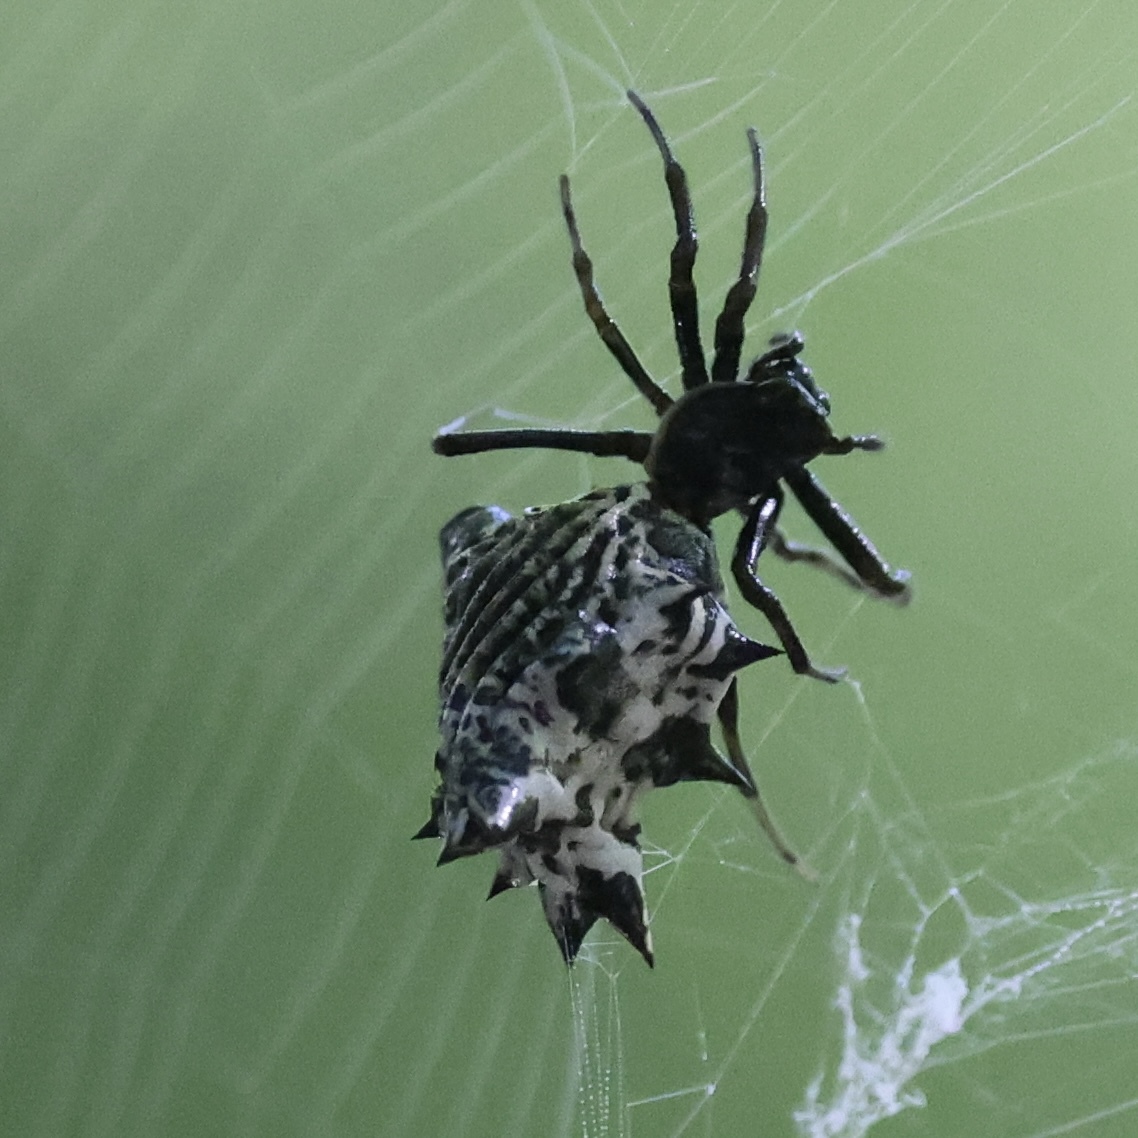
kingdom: Animalia
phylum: Arthropoda
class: Arachnida
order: Araneae
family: Araneidae
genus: Micrathena
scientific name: Micrathena gracilis
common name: Orb weavers
